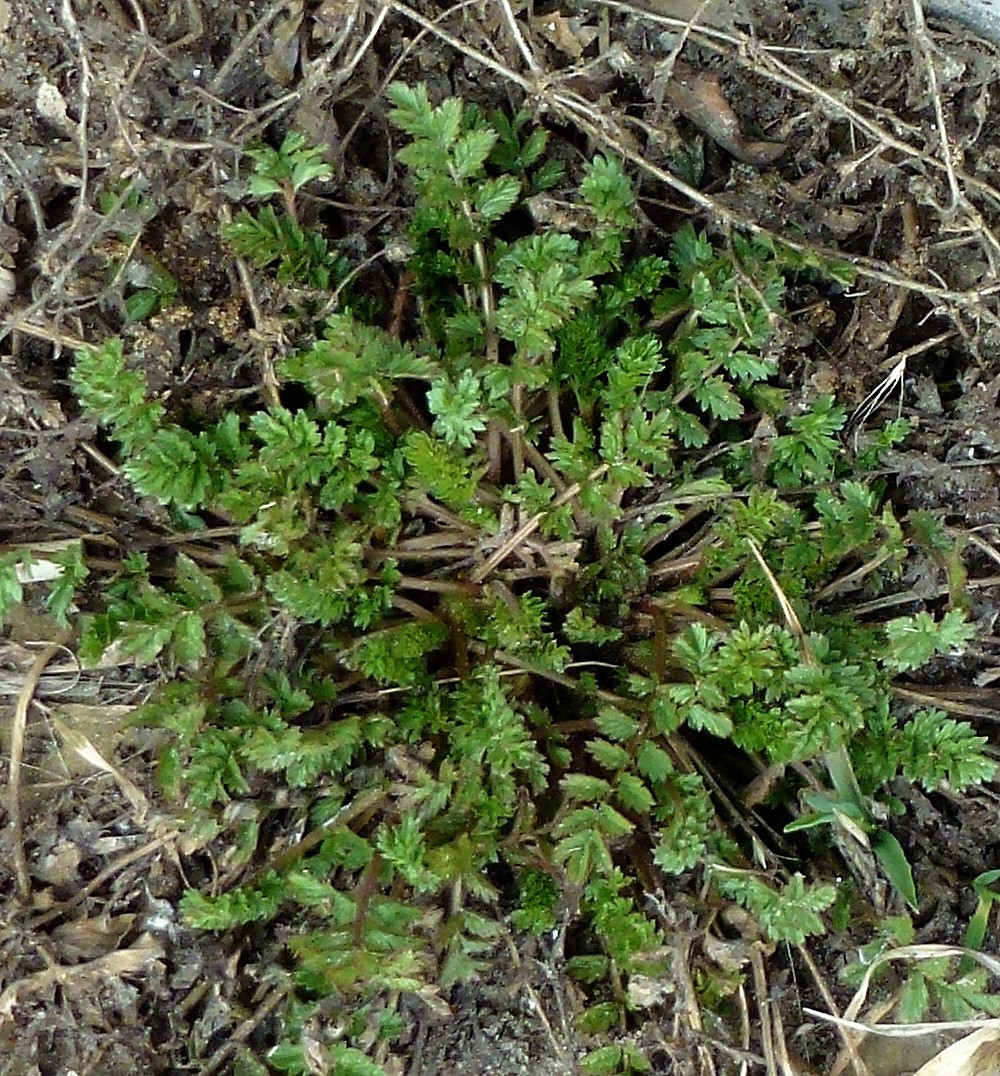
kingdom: Plantae
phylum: Tracheophyta
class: Magnoliopsida
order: Rosales
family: Rosaceae
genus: Potentilla
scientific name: Potentilla supina
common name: Prostrate cinquefoil
